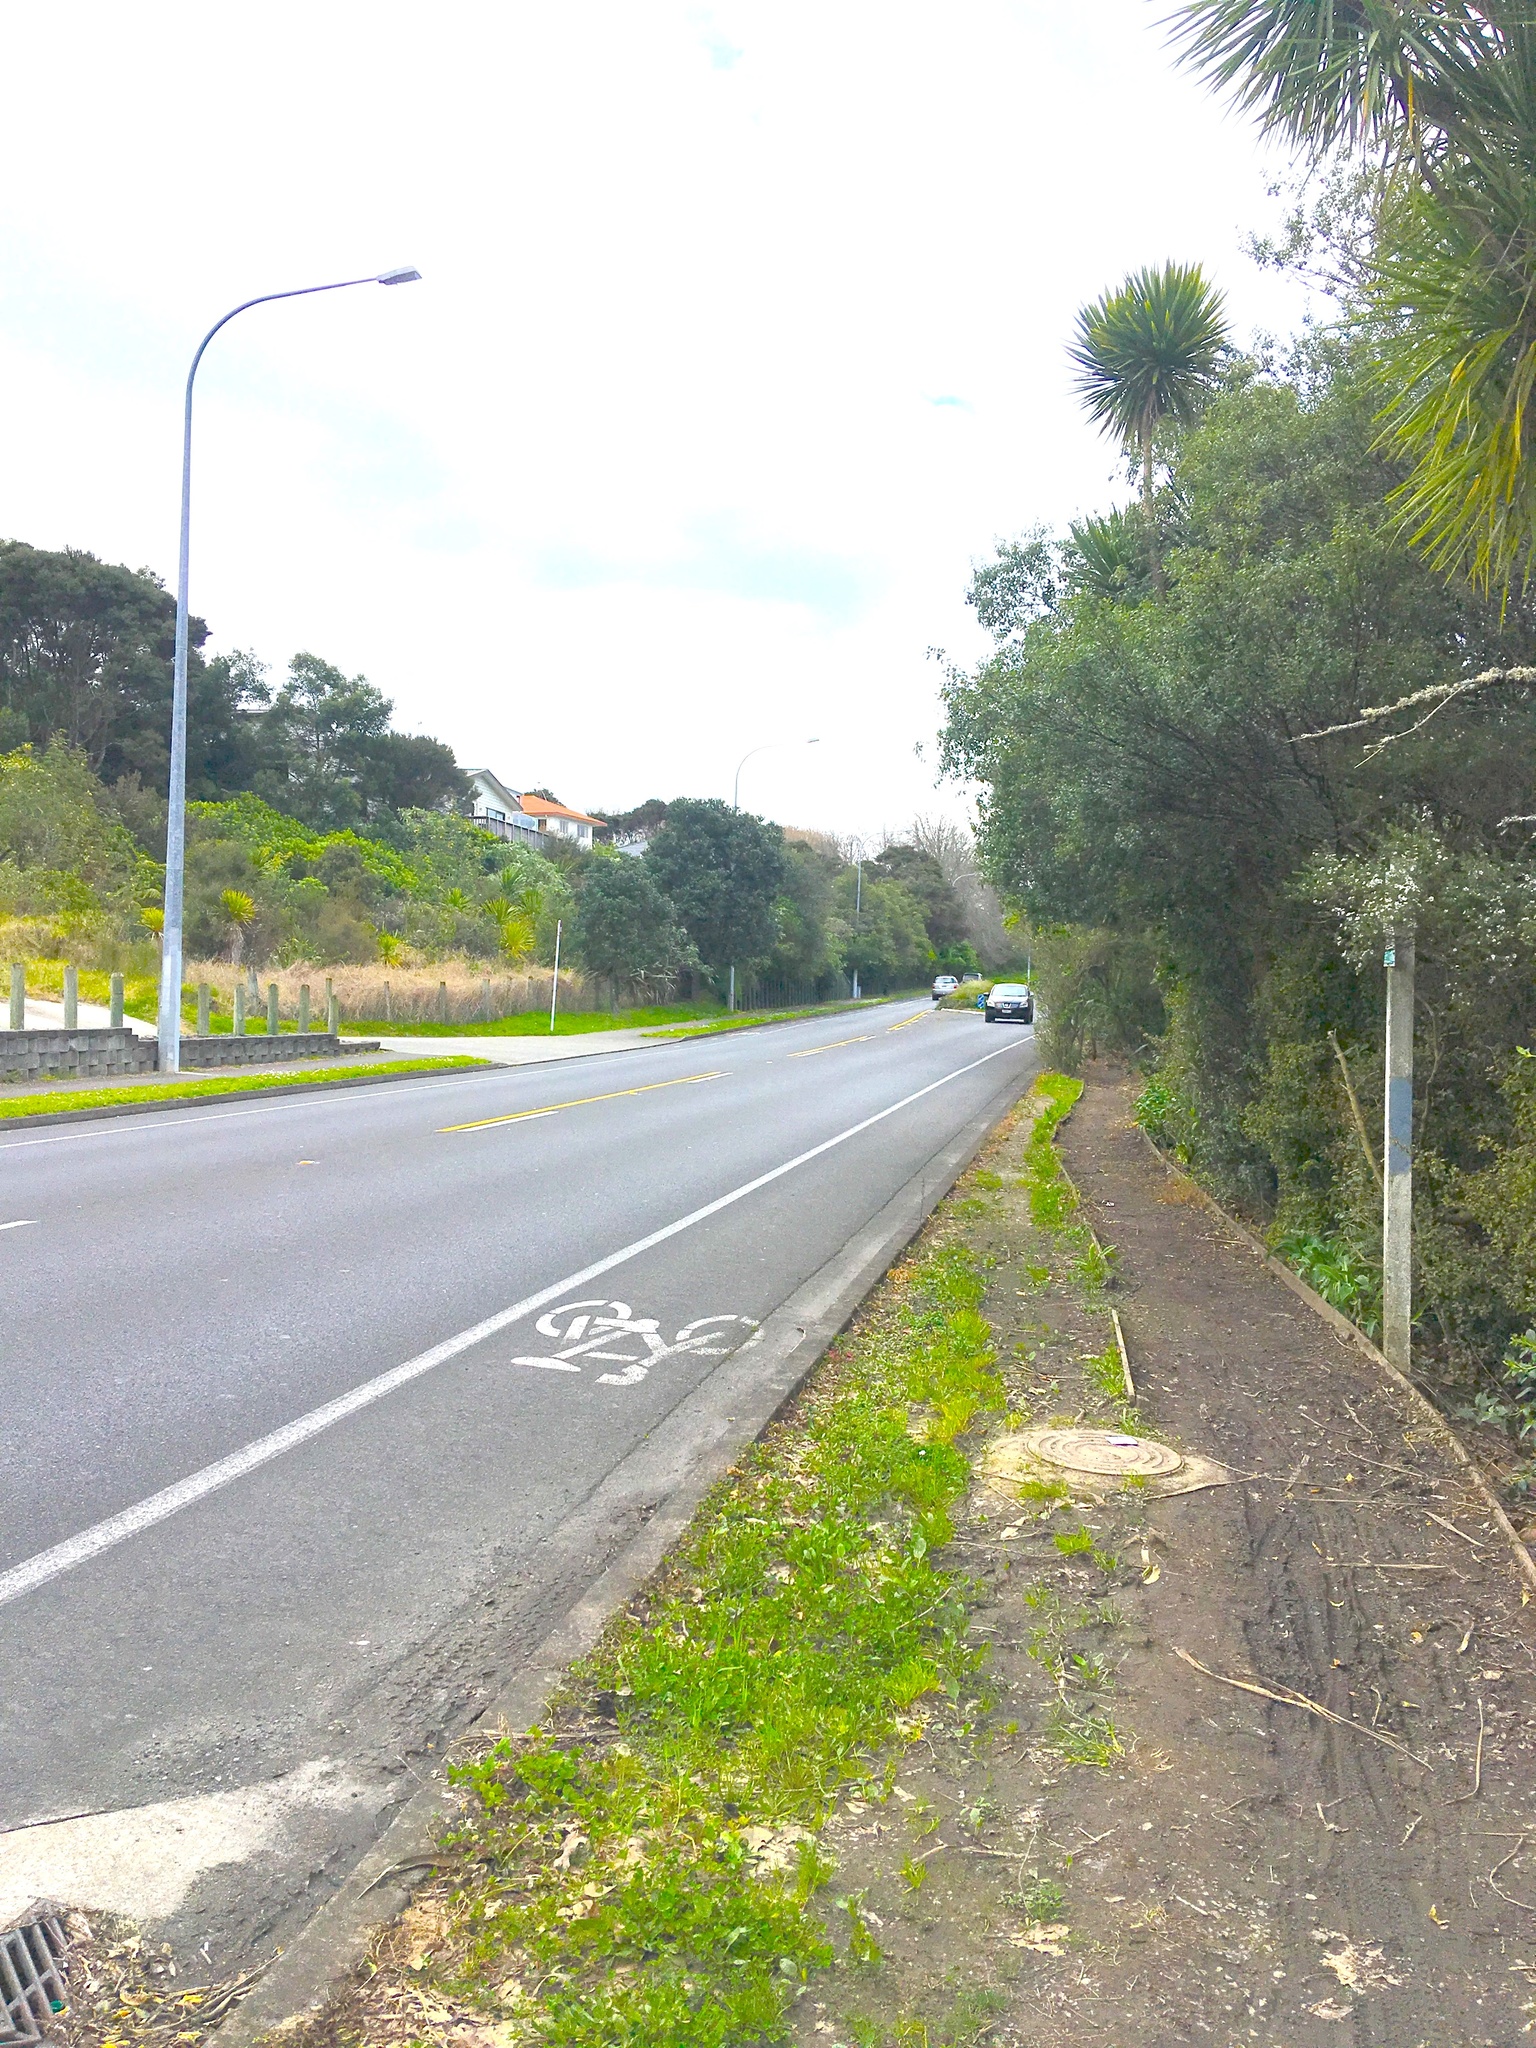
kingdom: Plantae
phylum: Tracheophyta
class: Liliopsida
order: Asparagales
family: Asparagaceae
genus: Cordyline
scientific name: Cordyline australis
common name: Cabbage-palm
